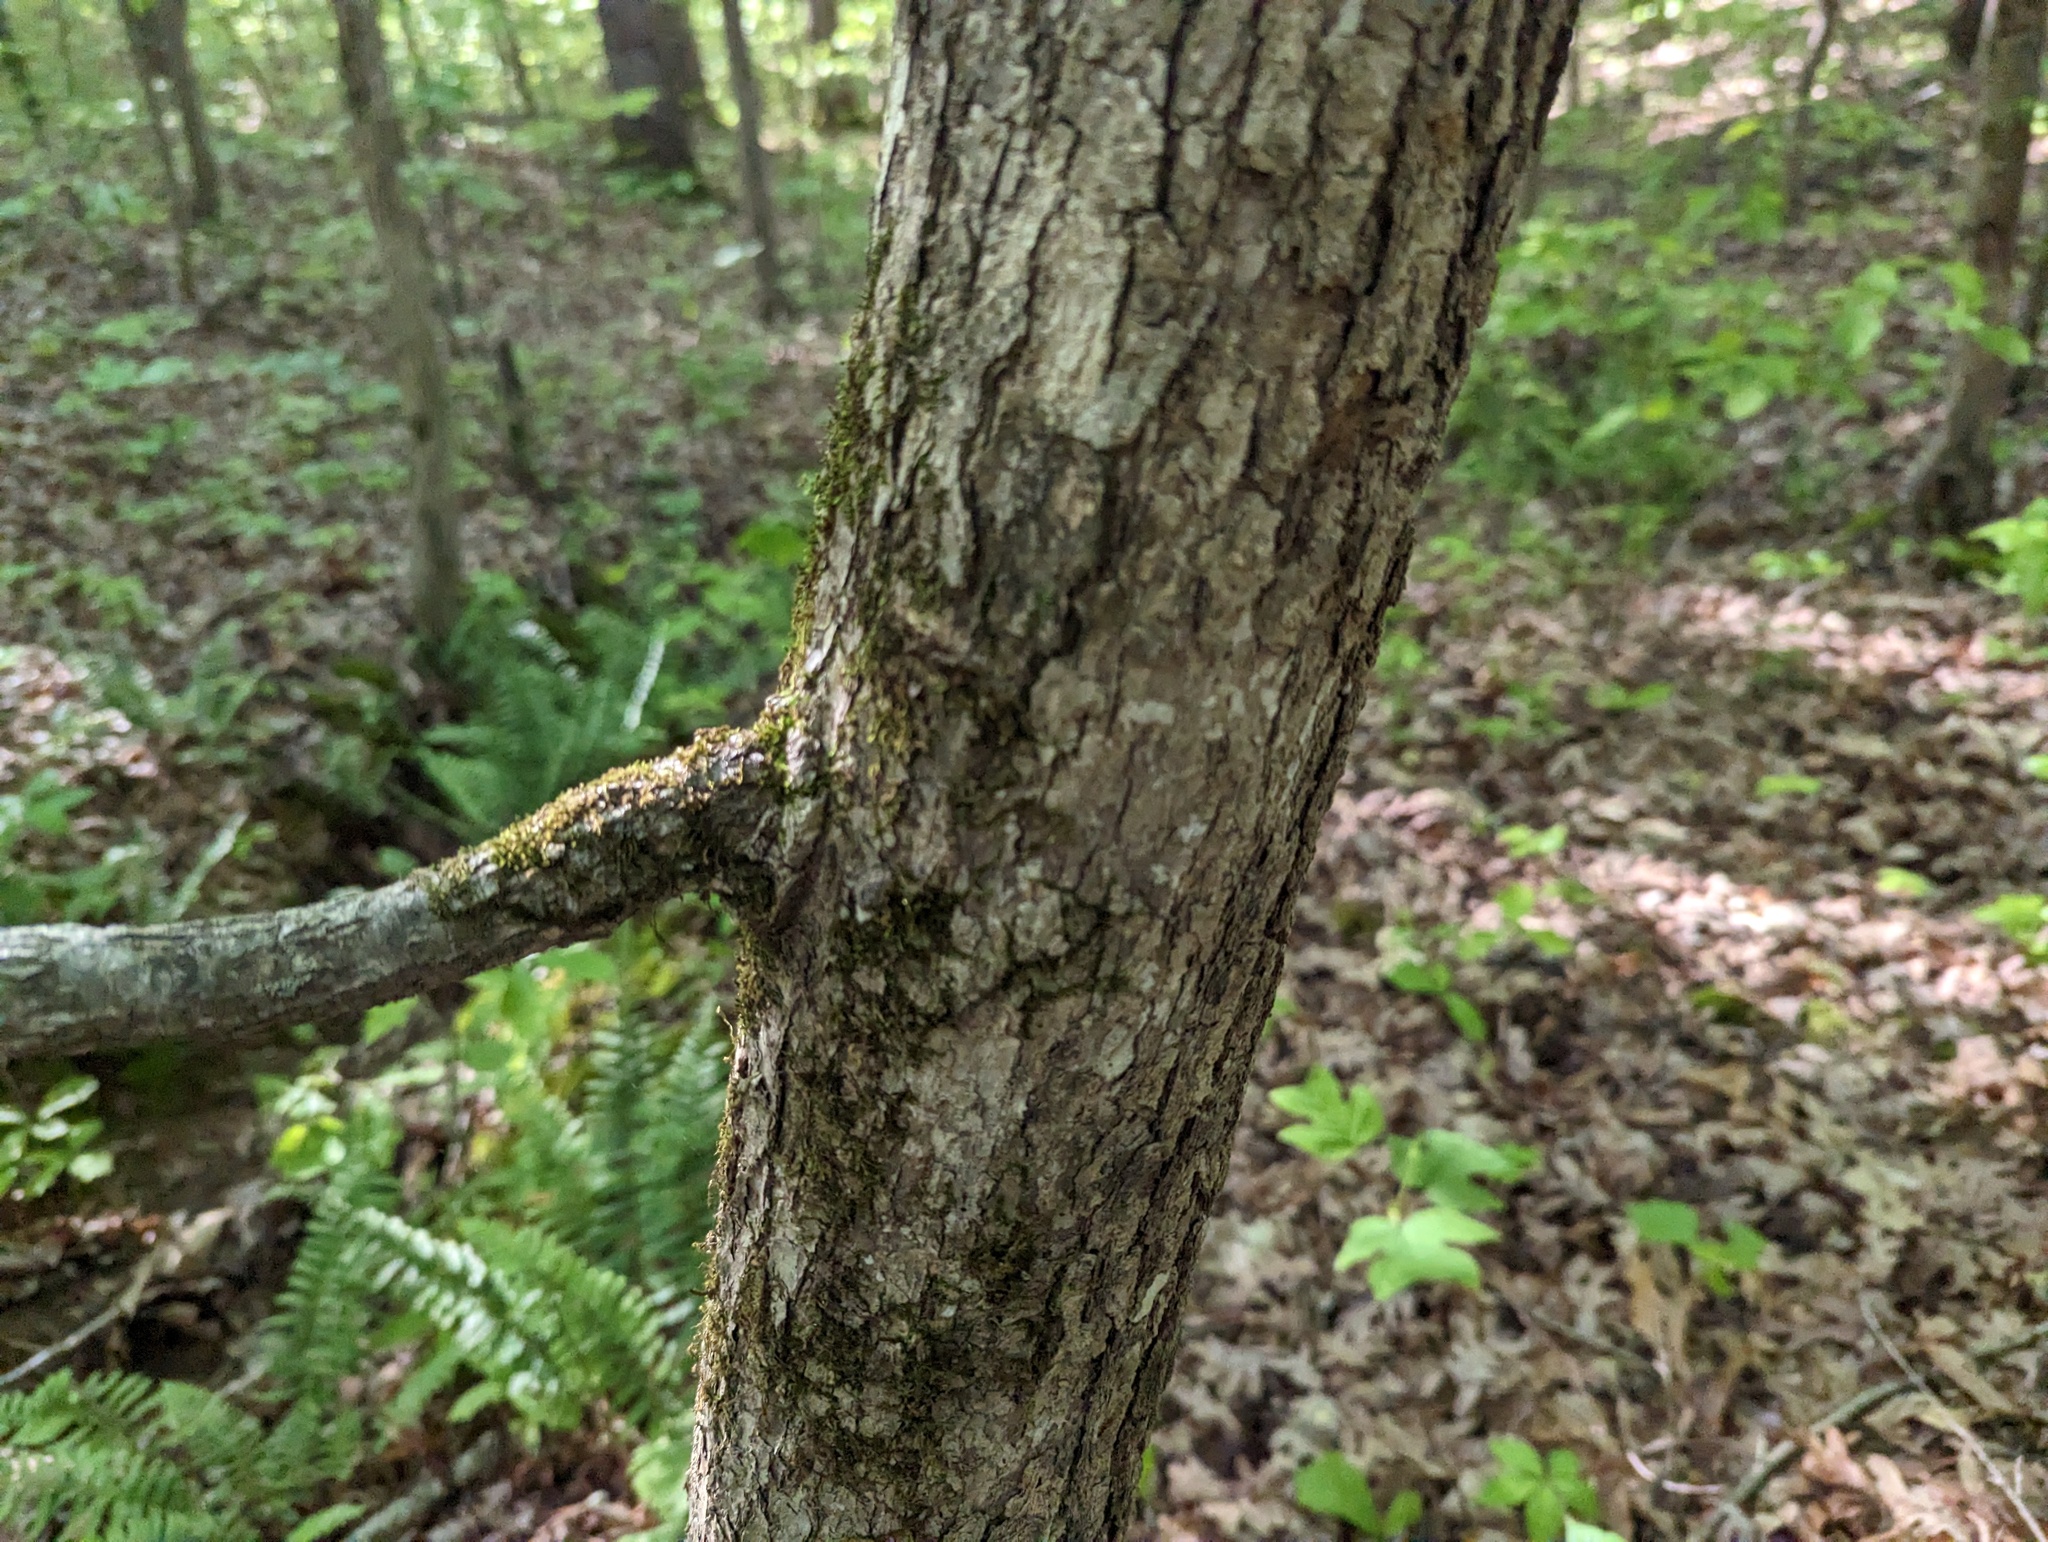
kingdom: Plantae
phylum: Tracheophyta
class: Magnoliopsida
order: Cornales
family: Nyssaceae
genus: Nyssa
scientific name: Nyssa sylvatica
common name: Black tupelo
